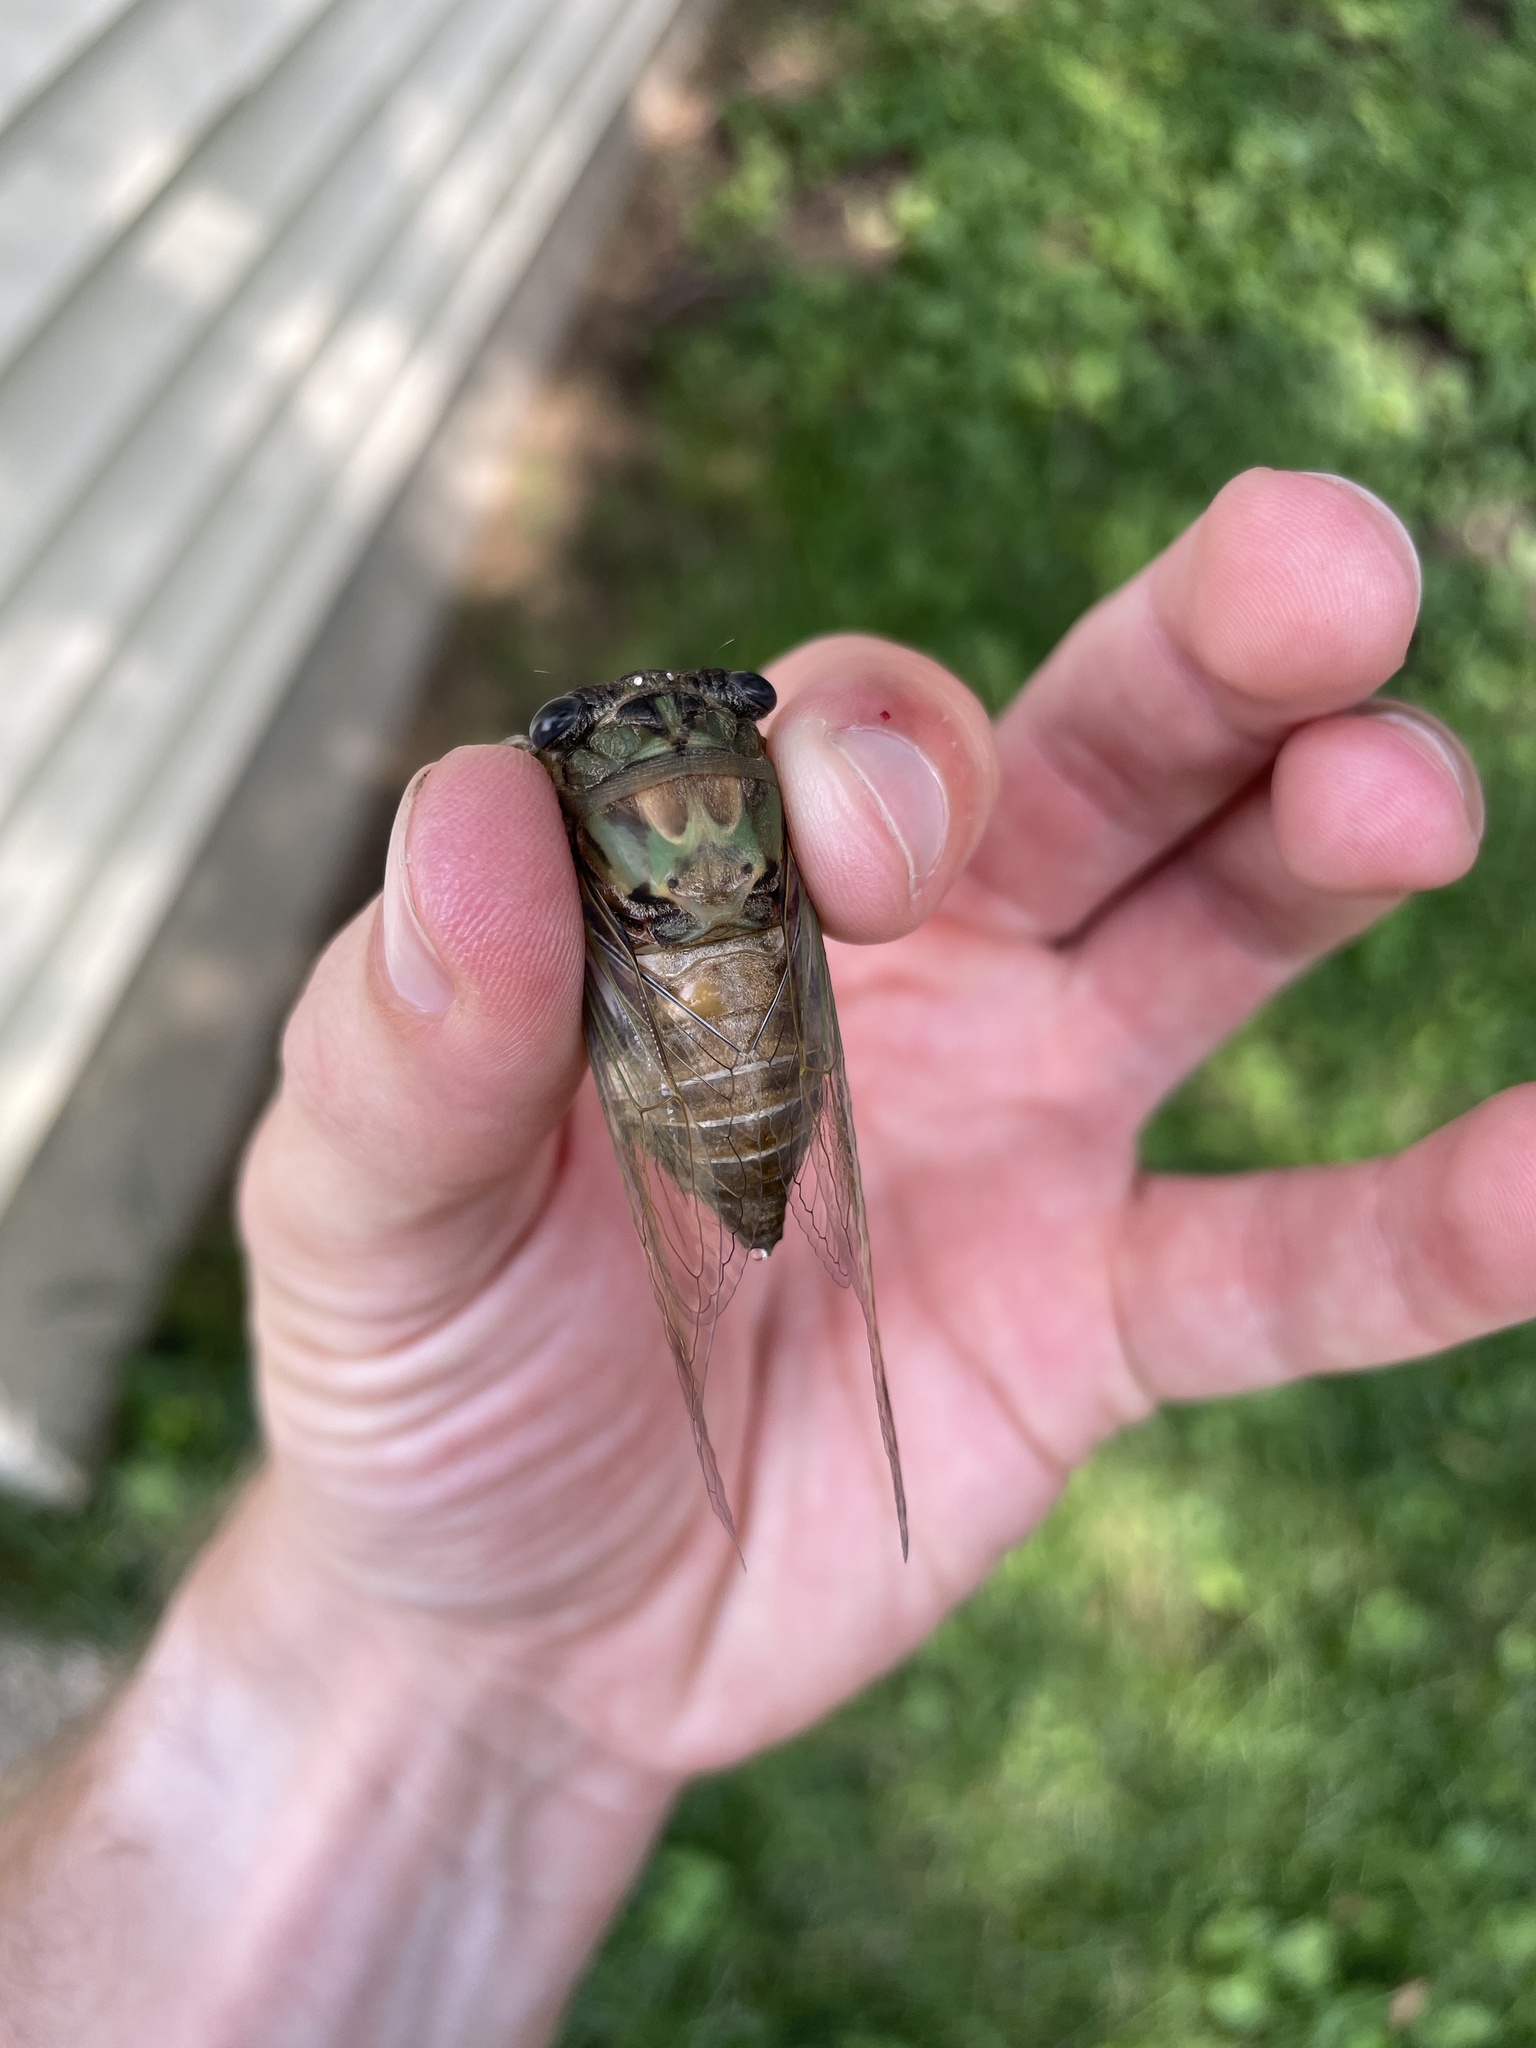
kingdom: Animalia
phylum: Arthropoda
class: Insecta
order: Hemiptera
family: Cicadidae
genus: Neotibicen
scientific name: Neotibicen pruinosus
